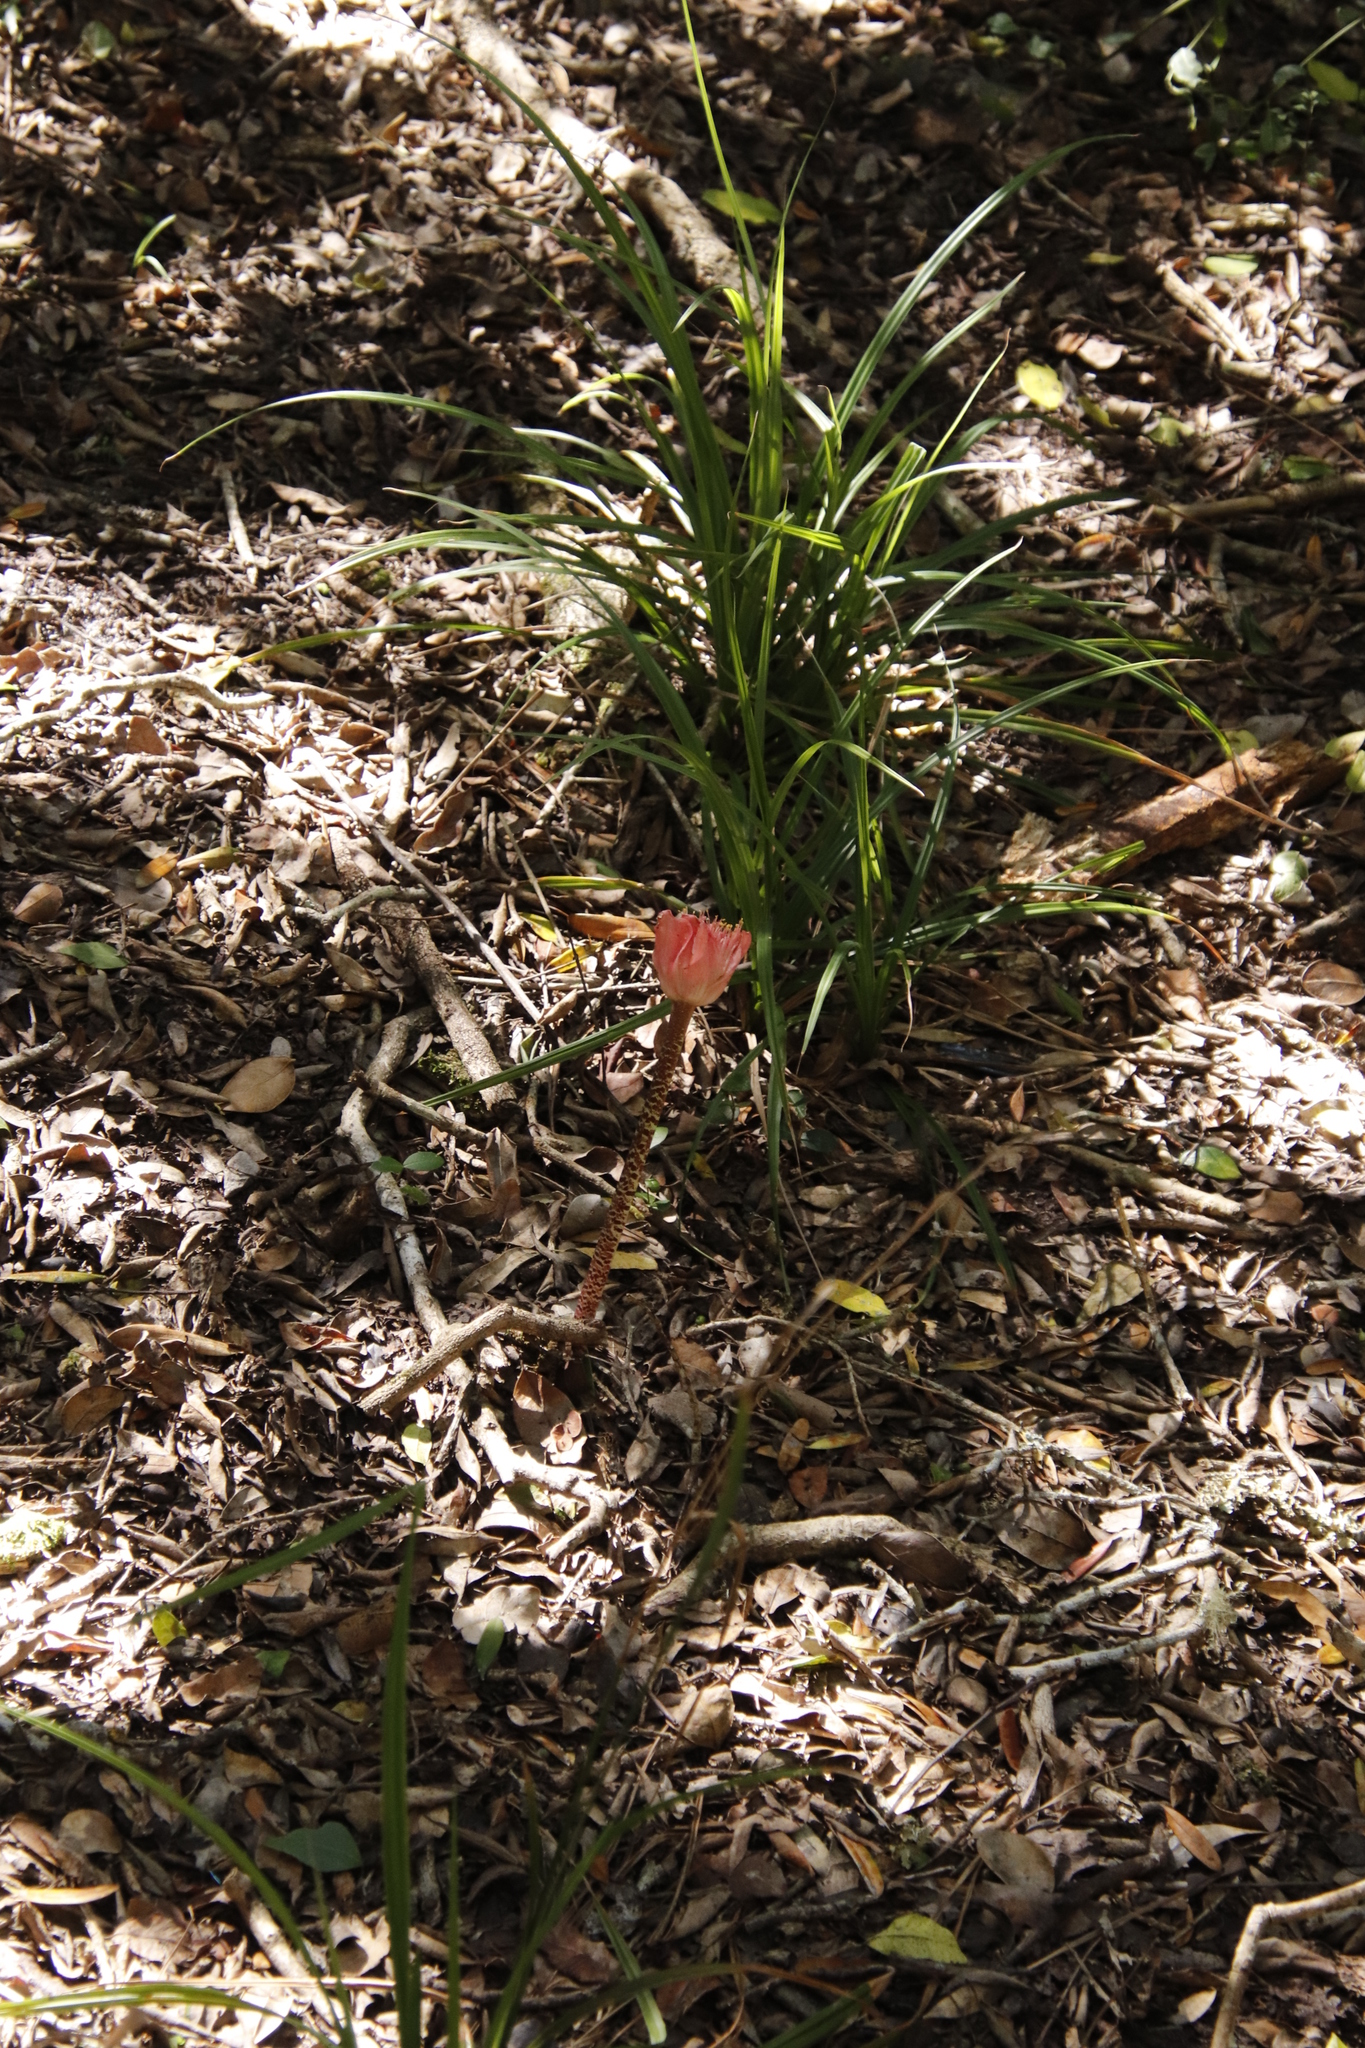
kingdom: Plantae
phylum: Tracheophyta
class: Liliopsida
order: Asparagales
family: Amaryllidaceae
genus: Haemanthus
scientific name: Haemanthus coccineus
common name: Cape-tulip
